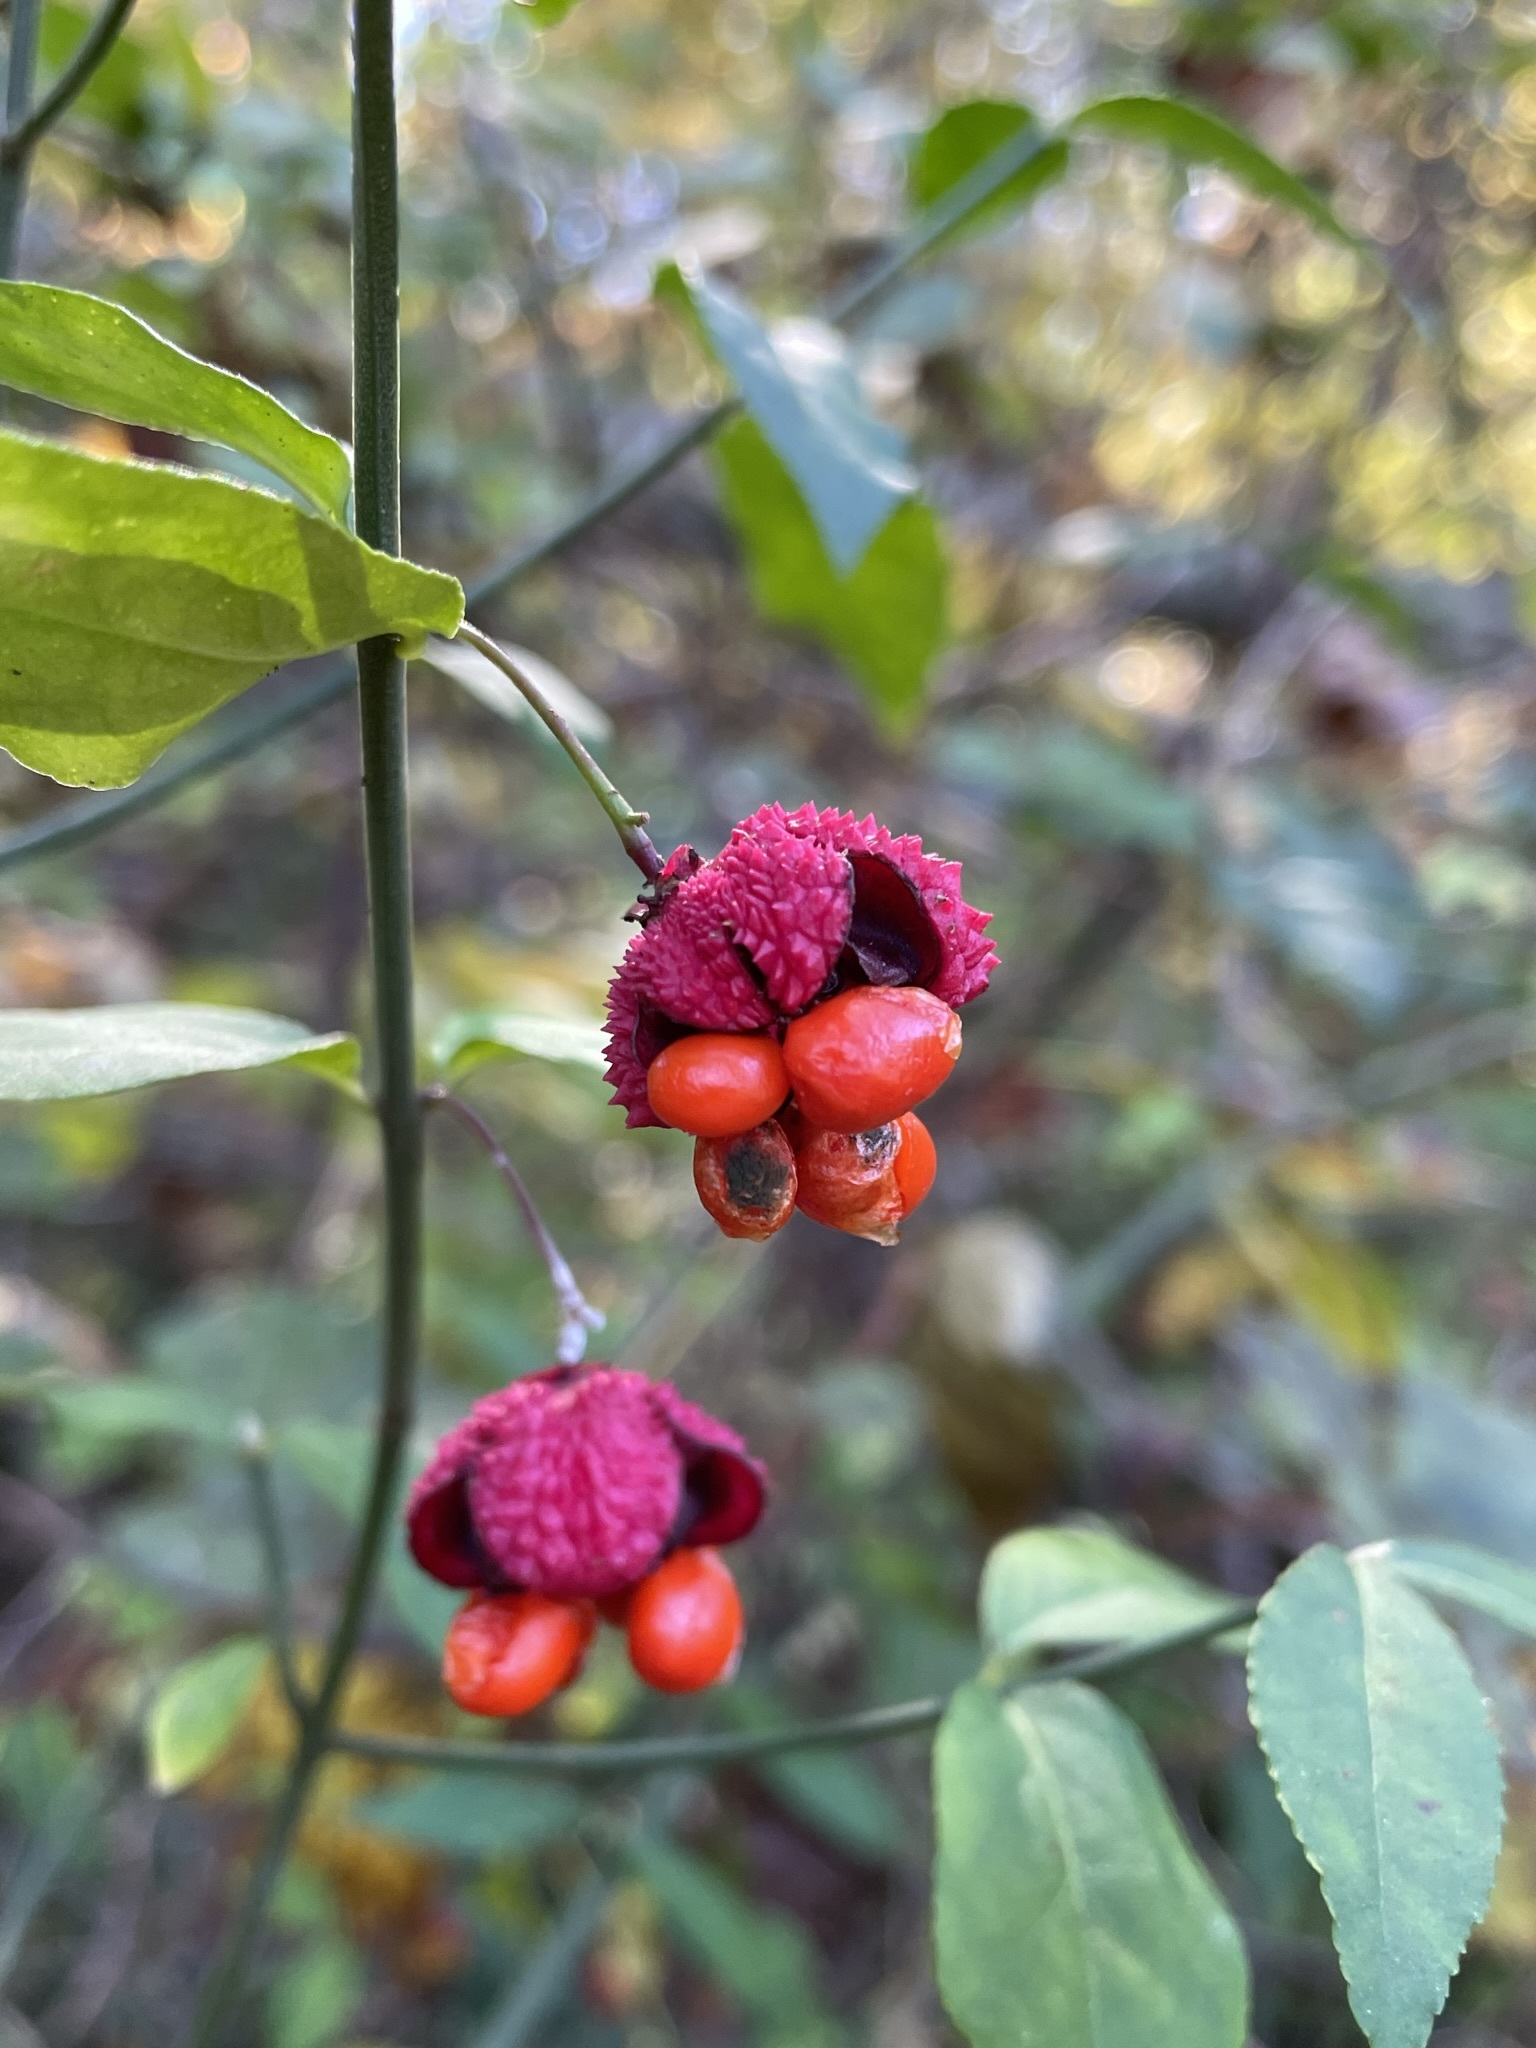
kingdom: Plantae
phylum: Tracheophyta
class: Magnoliopsida
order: Celastrales
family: Celastraceae
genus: Euonymus
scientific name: Euonymus americanus
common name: Bursting-heart
